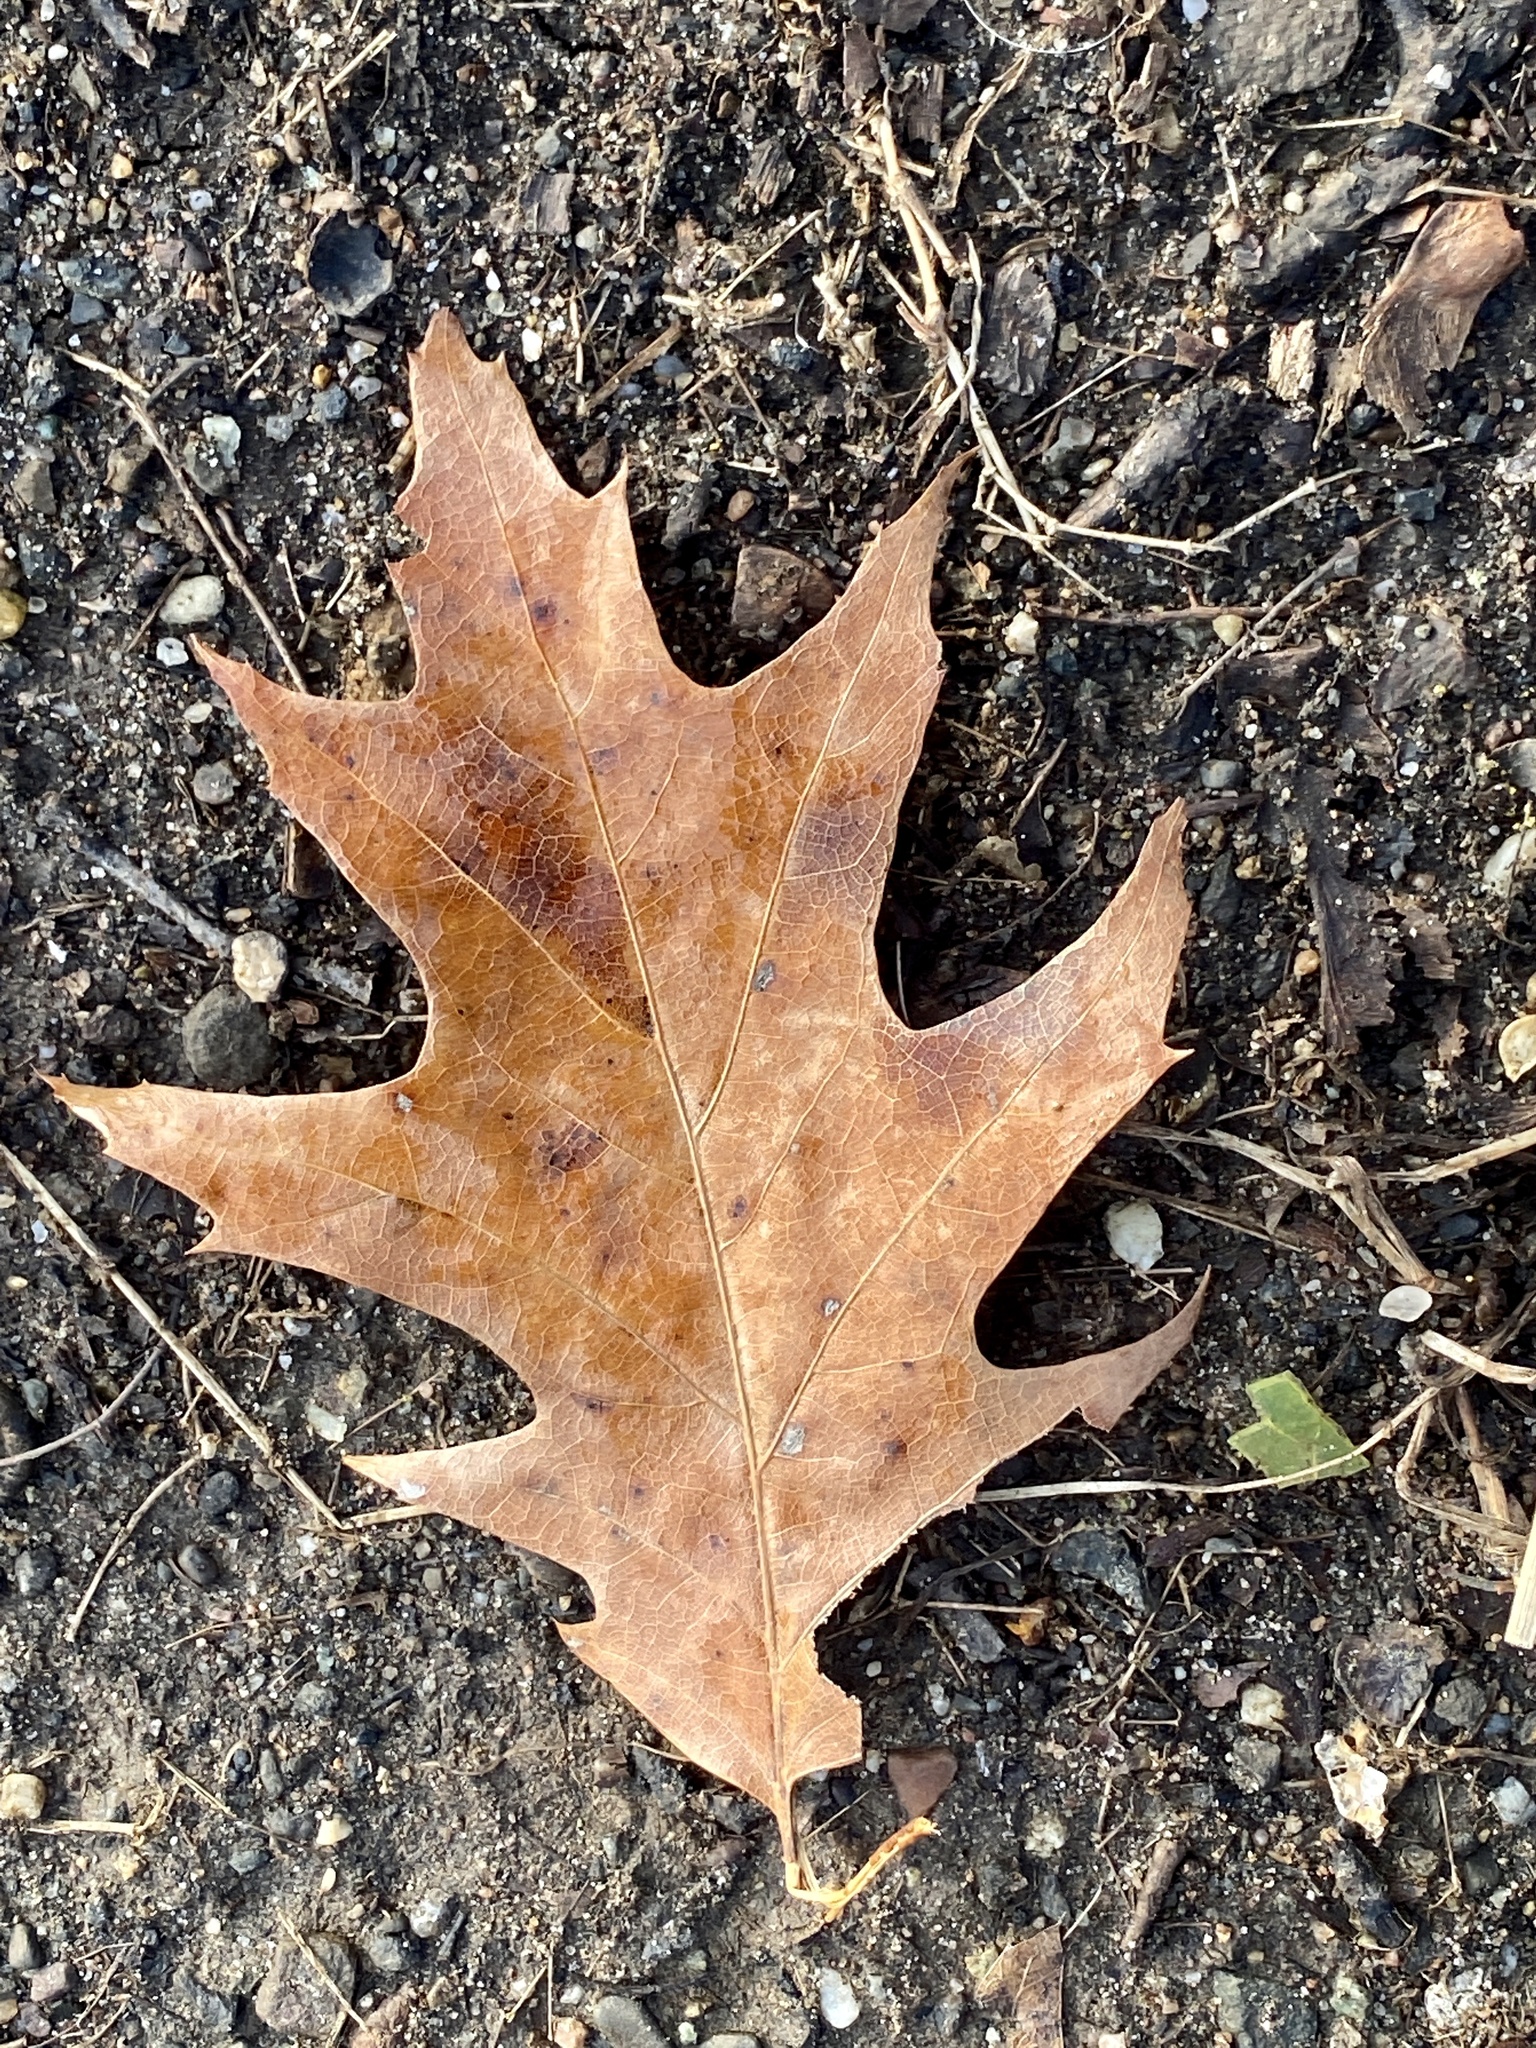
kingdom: Plantae
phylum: Tracheophyta
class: Magnoliopsida
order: Fagales
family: Fagaceae
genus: Quercus
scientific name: Quercus rubra
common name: Red oak
